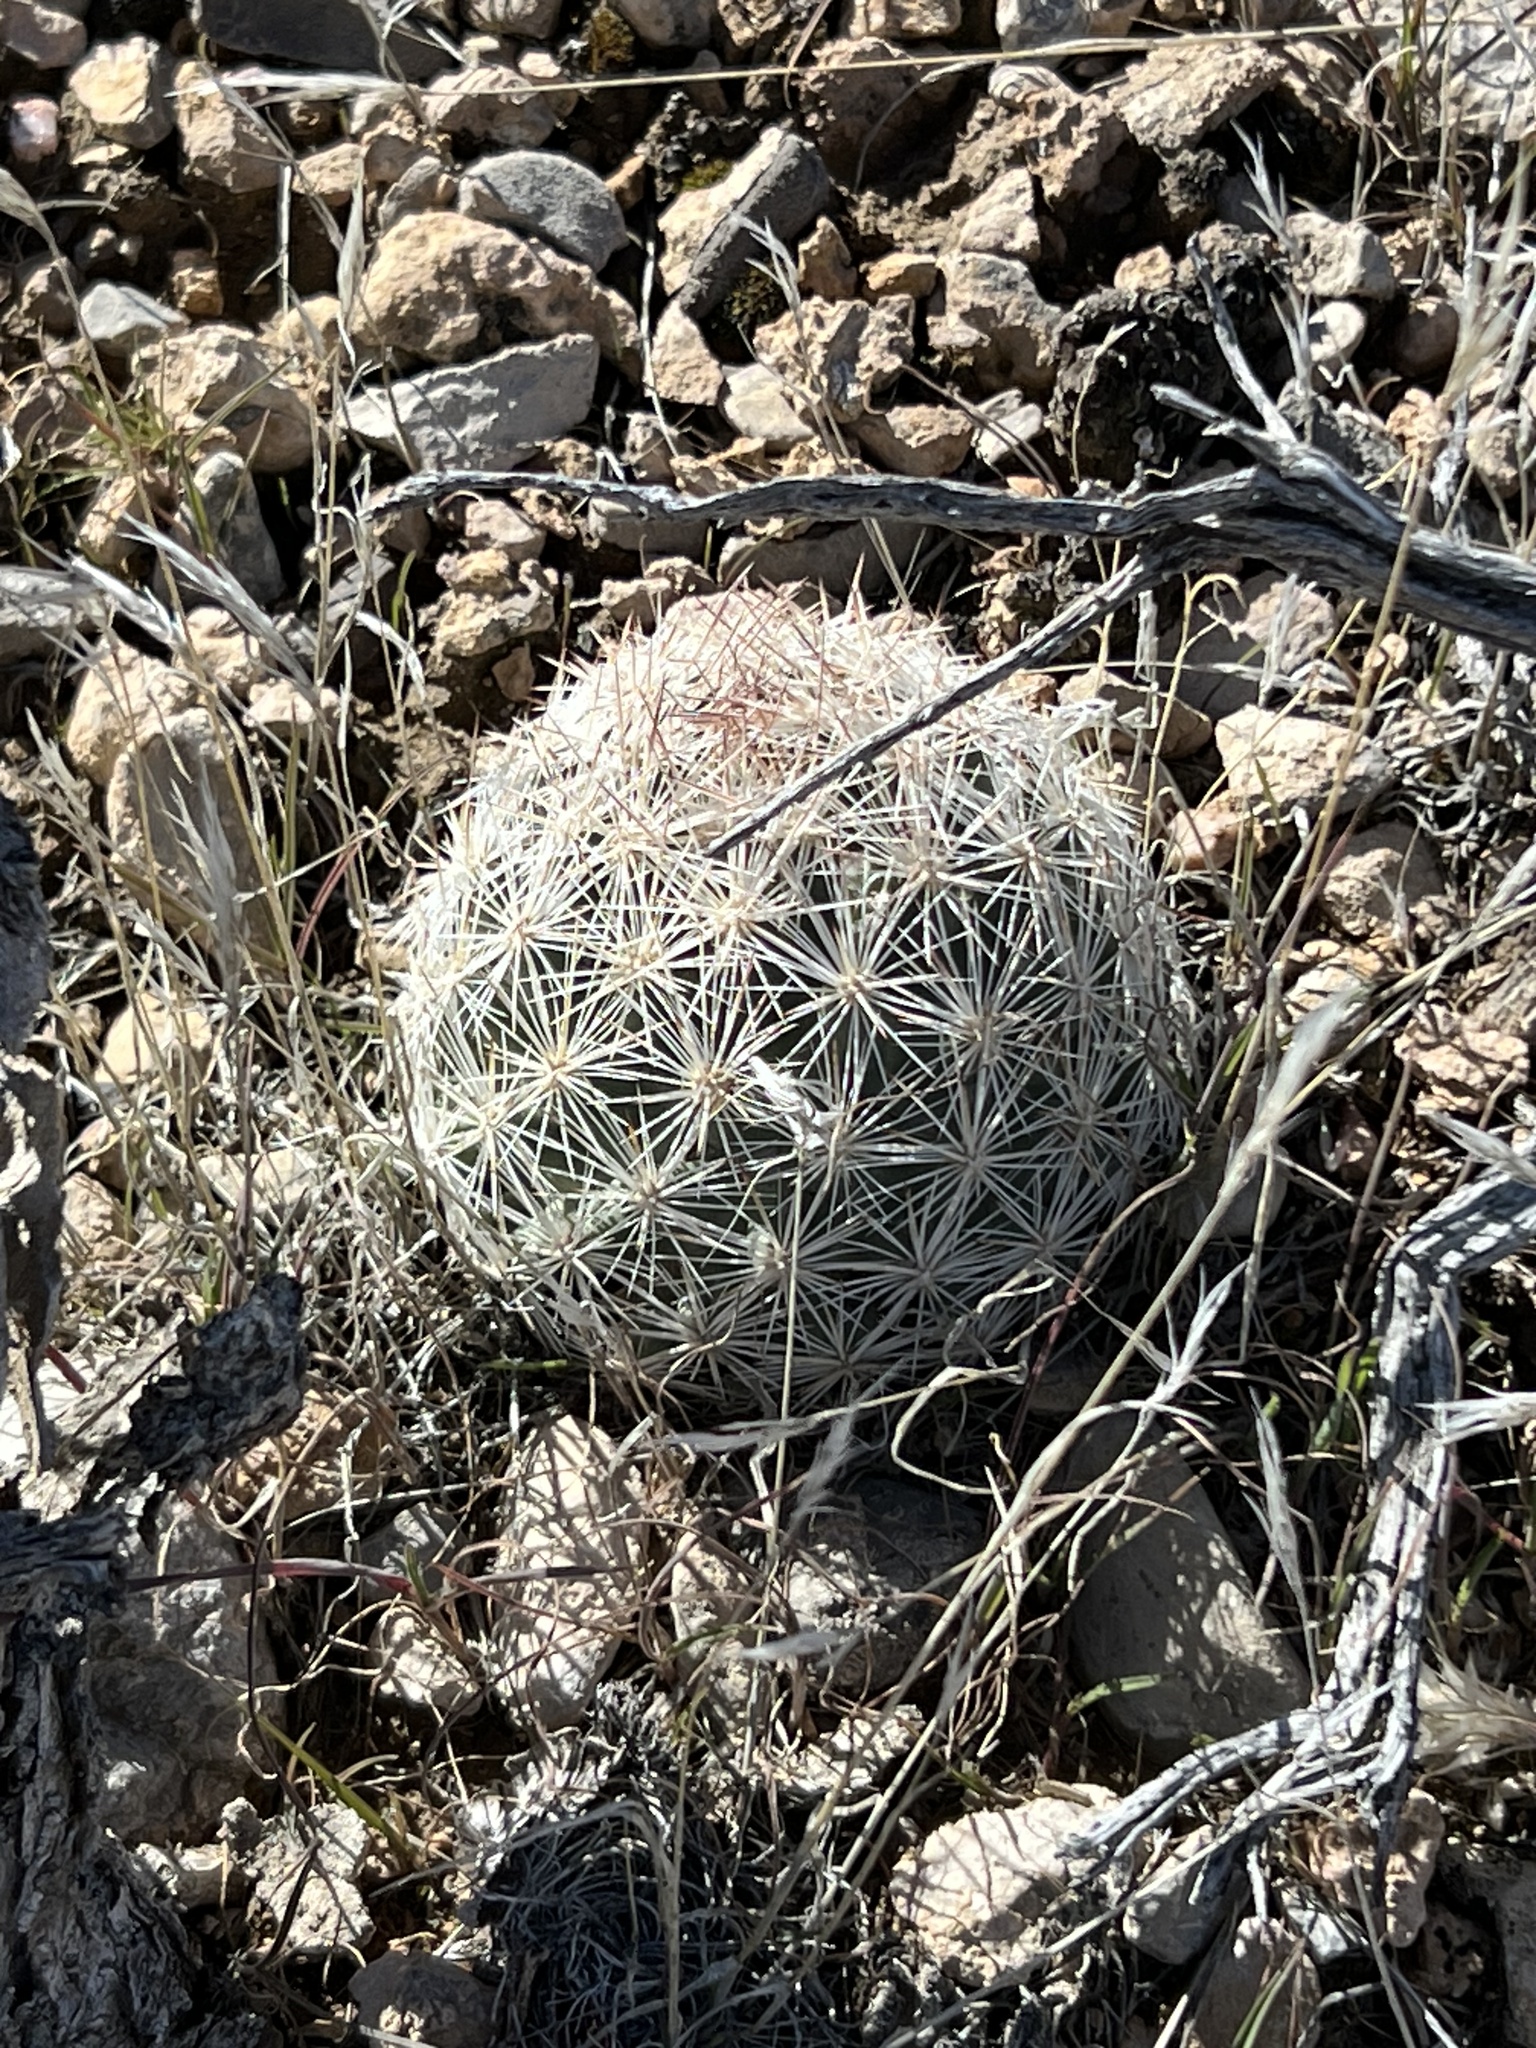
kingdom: Plantae
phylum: Tracheophyta
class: Magnoliopsida
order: Caryophyllales
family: Cactaceae
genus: Pelecyphora
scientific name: Pelecyphora dasyacantha
